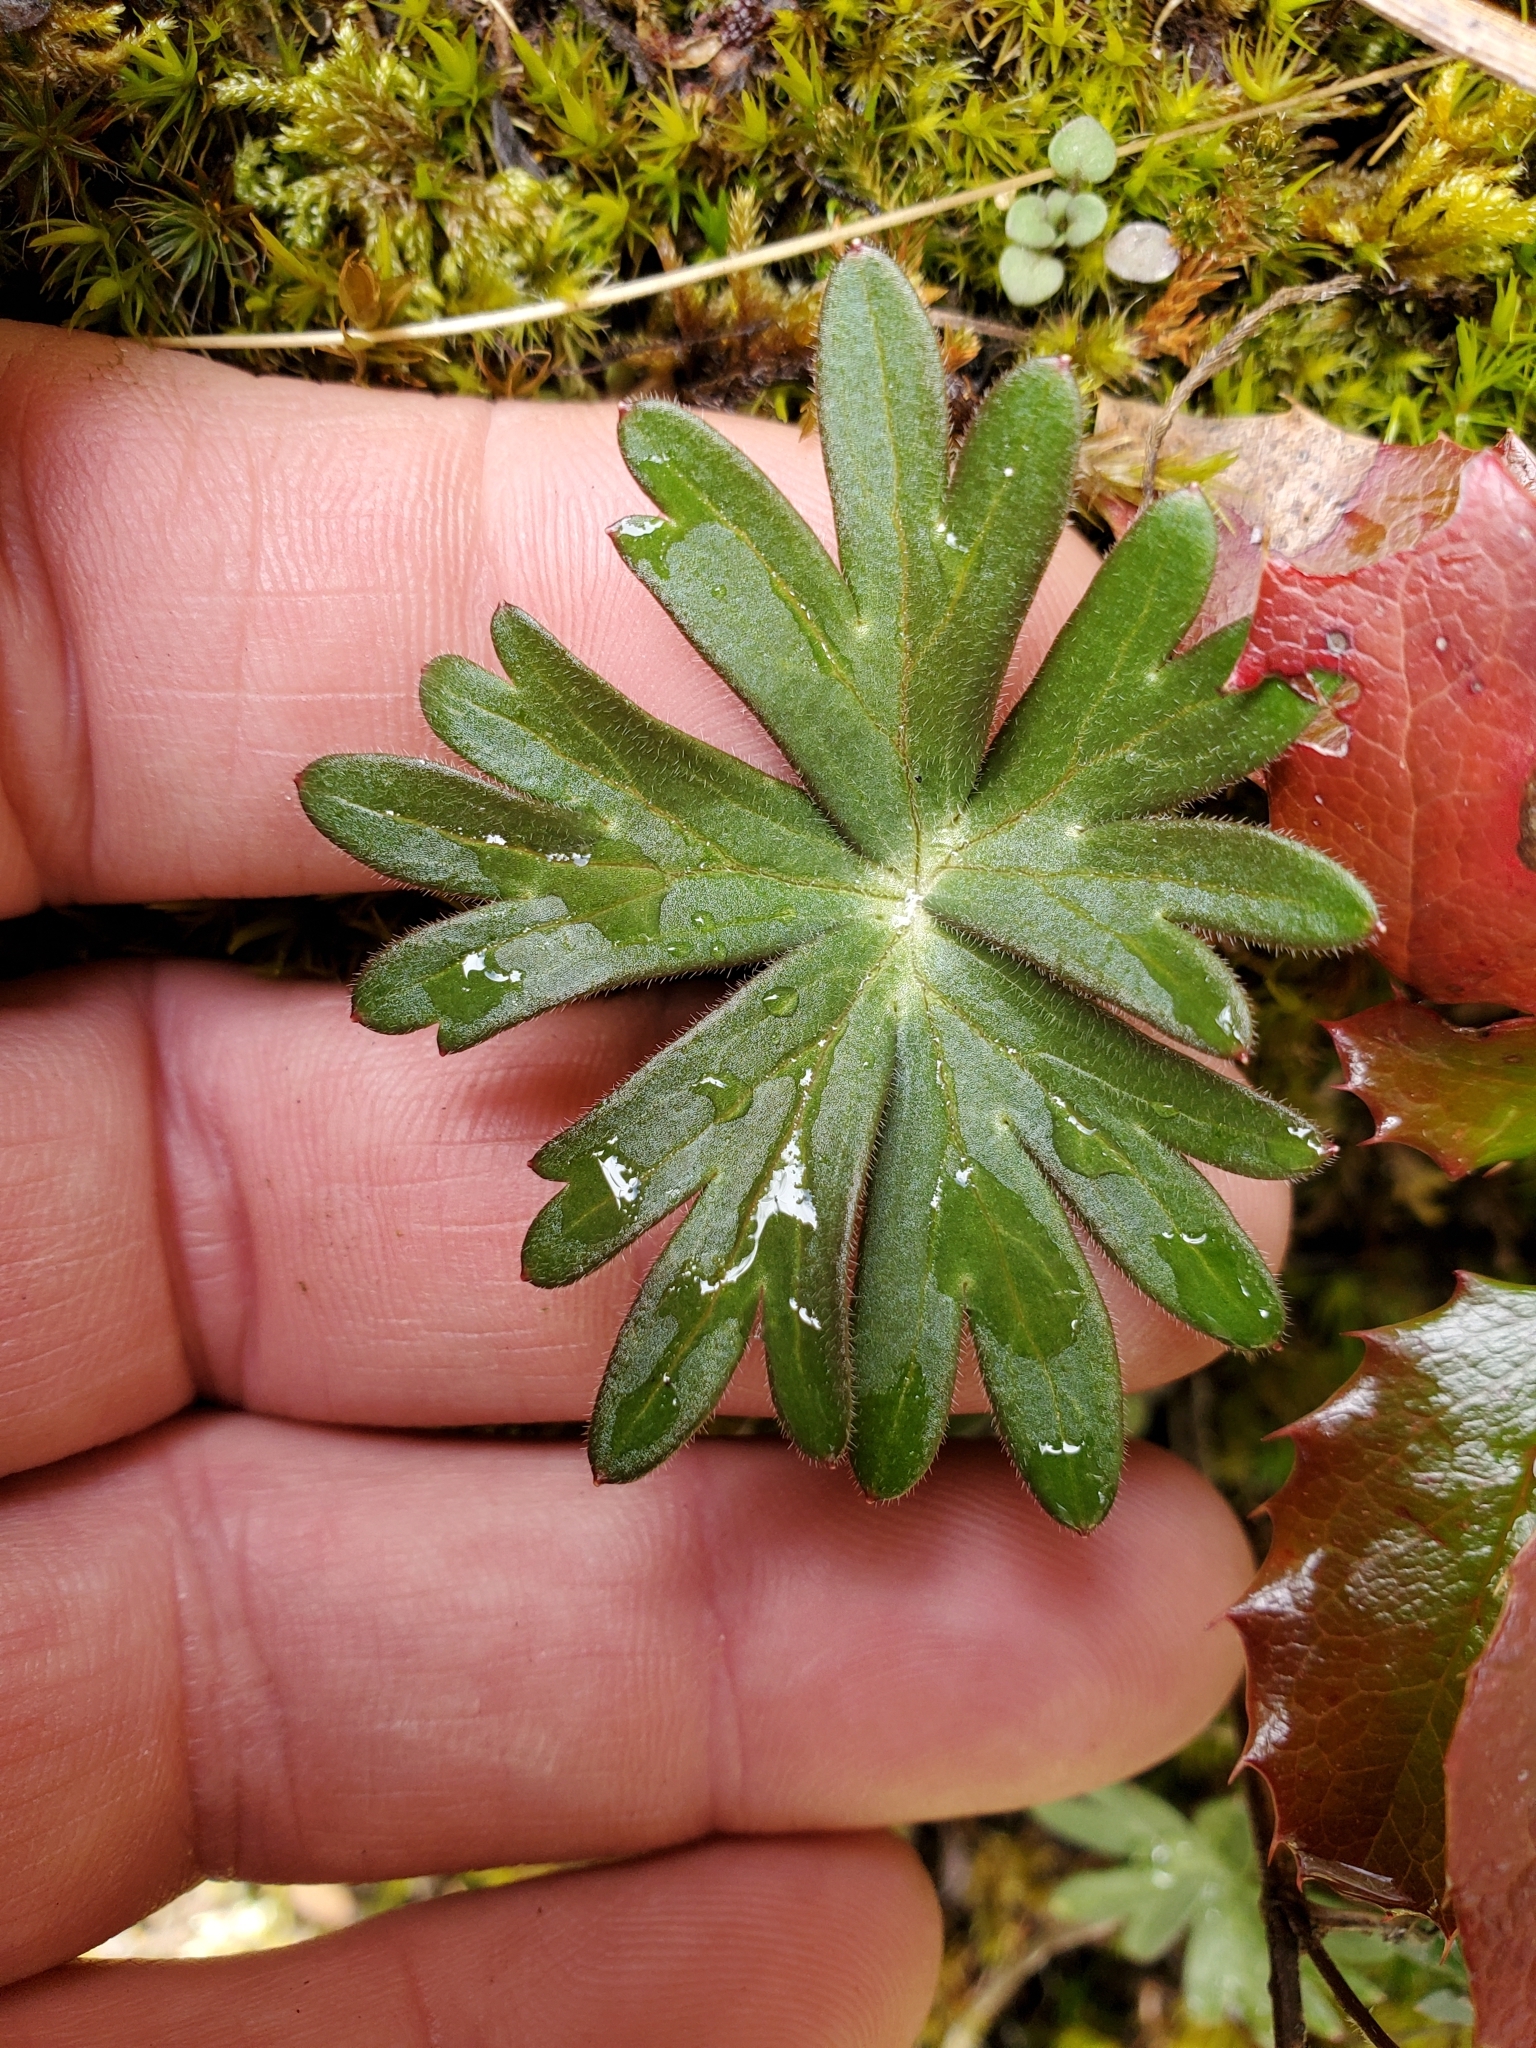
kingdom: Plantae
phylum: Tracheophyta
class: Magnoliopsida
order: Ranunculales
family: Ranunculaceae
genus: Delphinium
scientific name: Delphinium menziesii
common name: Menzies's larkspur
